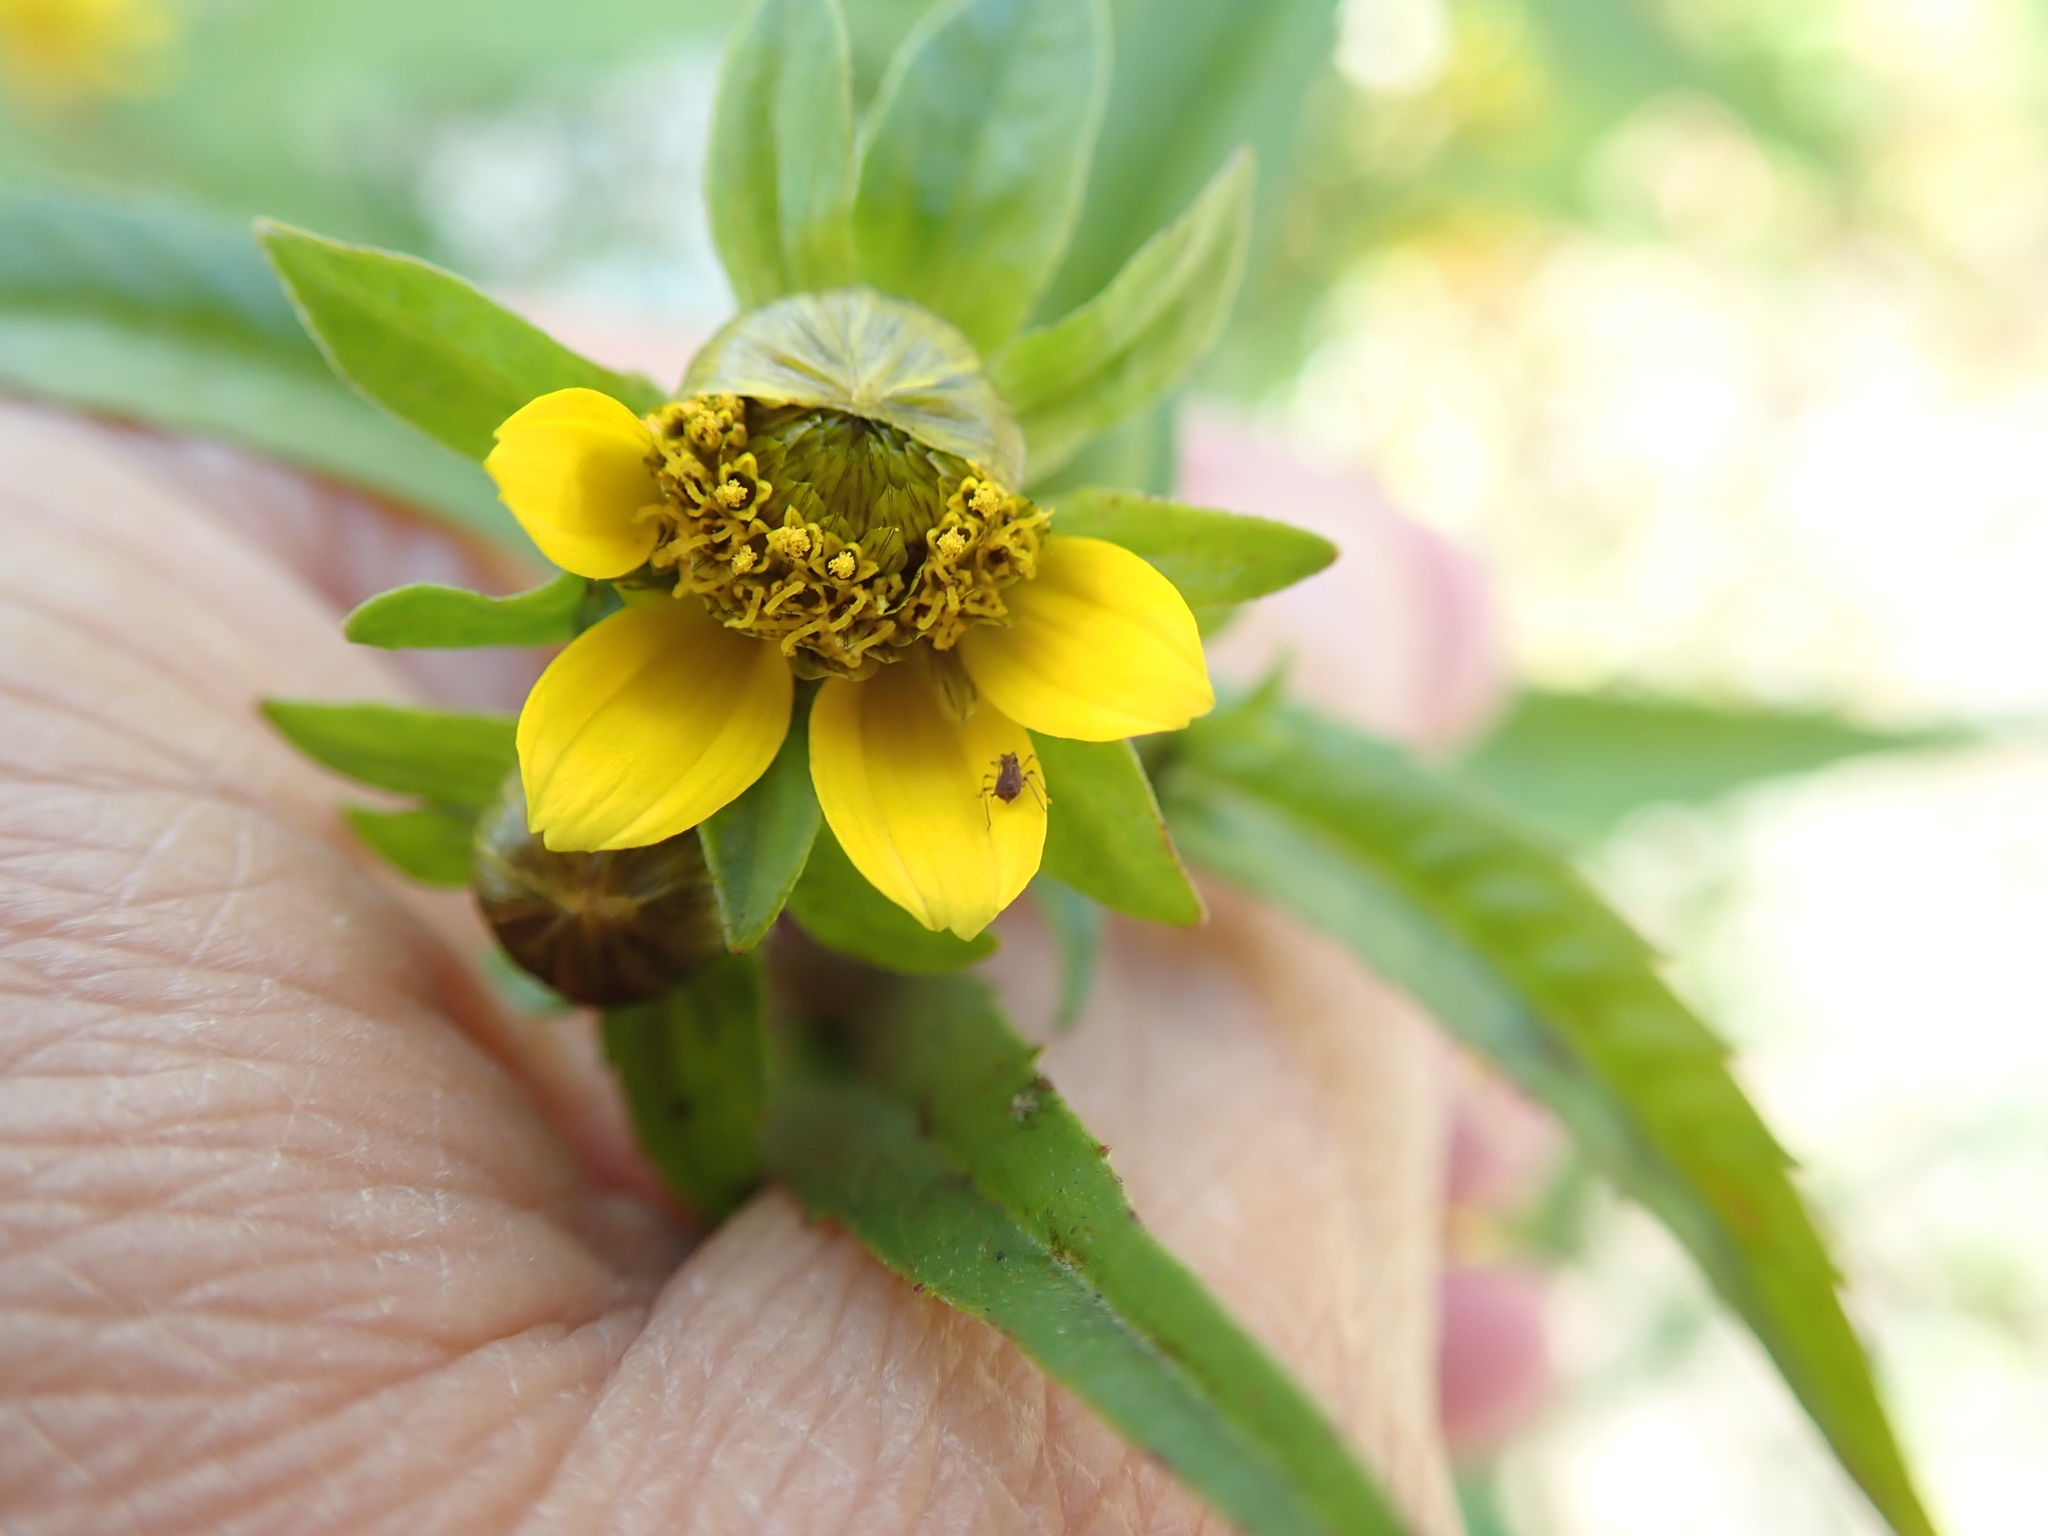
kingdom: Plantae
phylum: Tracheophyta
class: Magnoliopsida
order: Asterales
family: Asteraceae
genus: Bidens
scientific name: Bidens cernua
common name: Nodding bur-marigold
